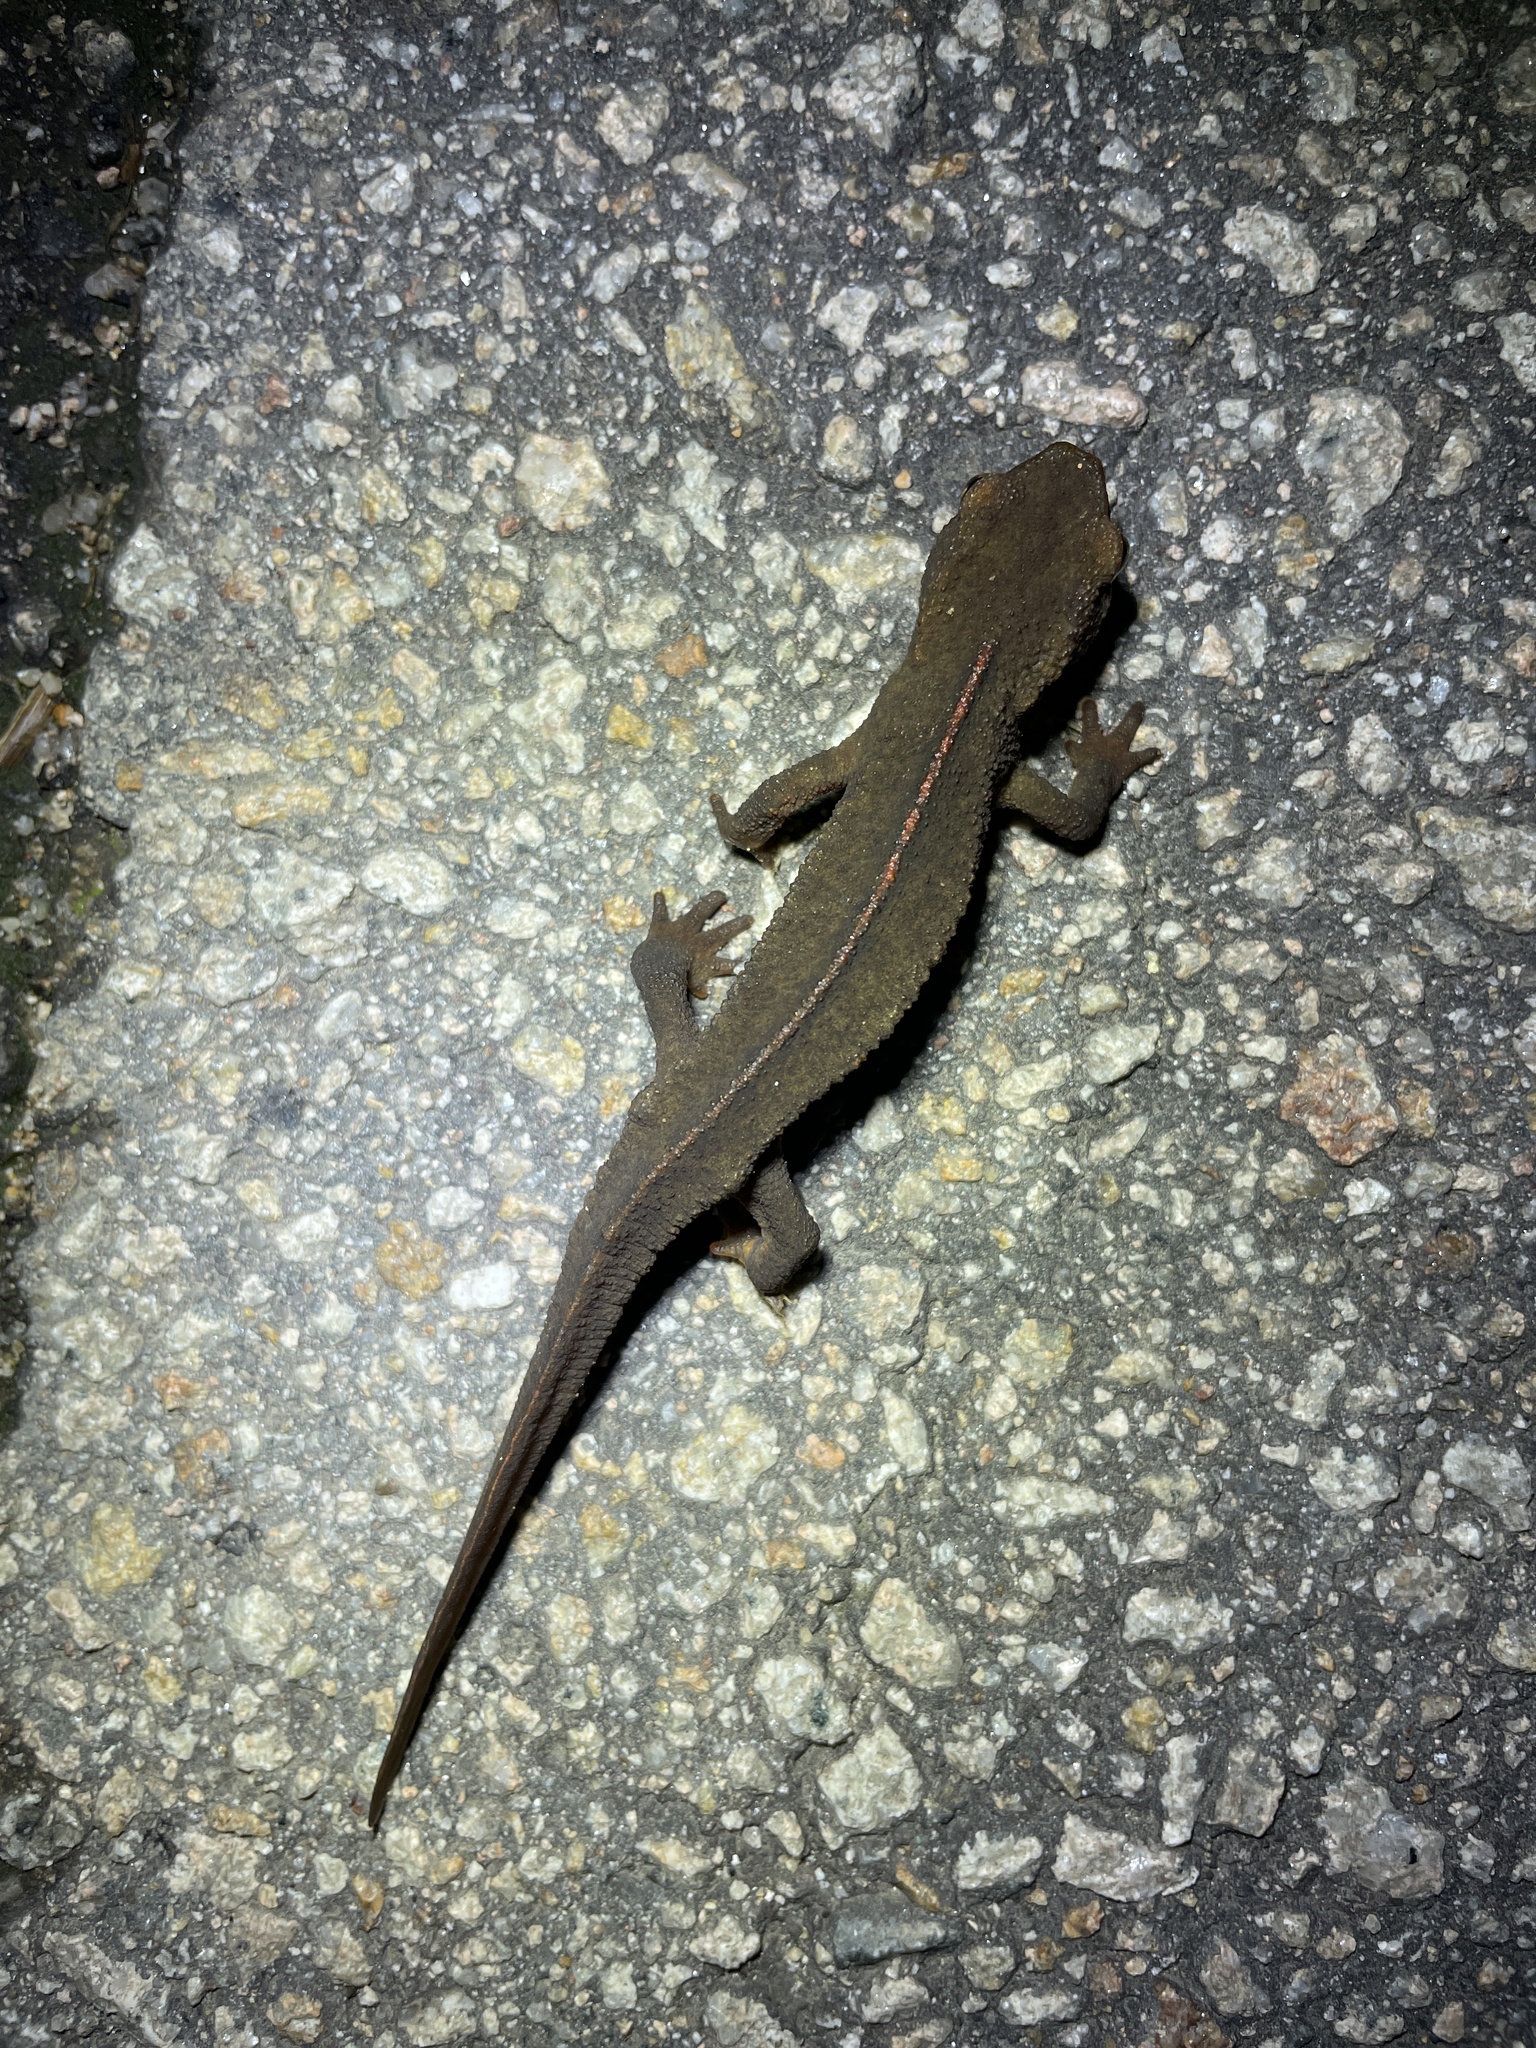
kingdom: Animalia
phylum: Chordata
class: Amphibia
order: Caudata
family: Salamandridae
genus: Paramesotriton
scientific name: Paramesotriton hongkongensis
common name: Hong kong warty newt
